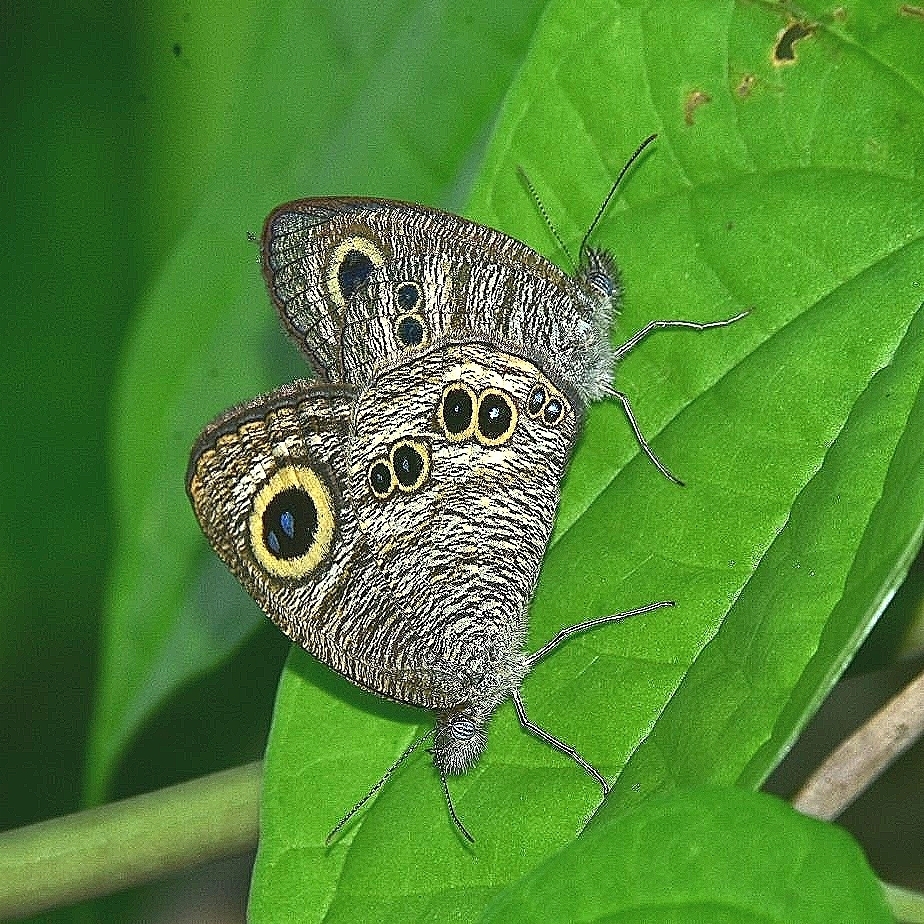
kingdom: Animalia
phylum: Arthropoda
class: Insecta
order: Lepidoptera
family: Nymphalidae
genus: Ypthima
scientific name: Ypthima baldus
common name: Common five-ring
